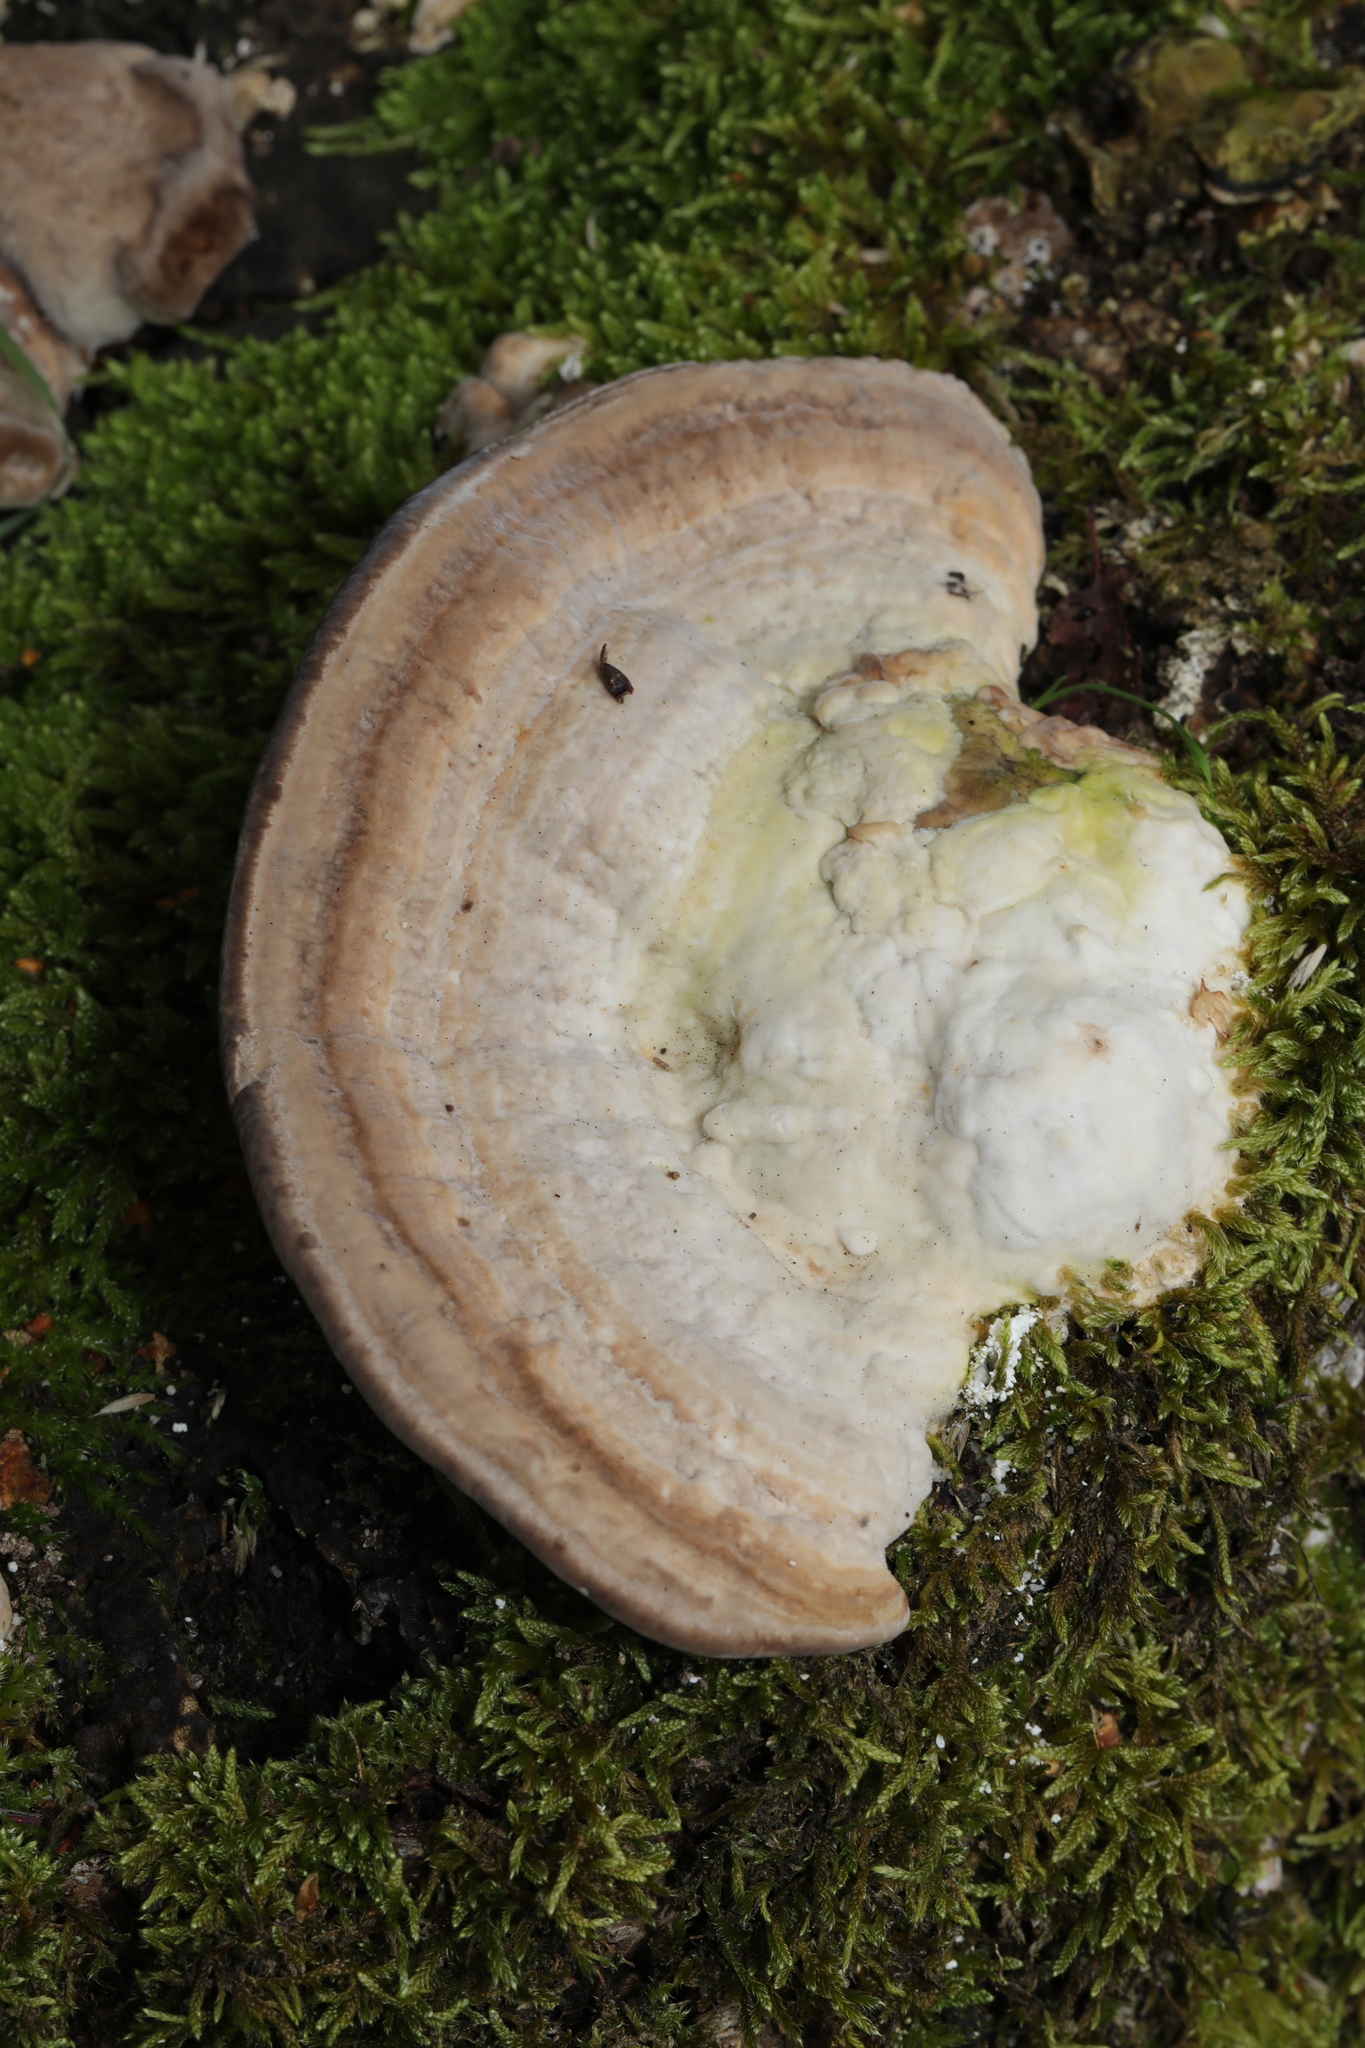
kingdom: Fungi
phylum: Basidiomycota
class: Agaricomycetes
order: Polyporales
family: Polyporaceae
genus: Trametes
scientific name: Trametes gibbosa
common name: Lumpy bracket
